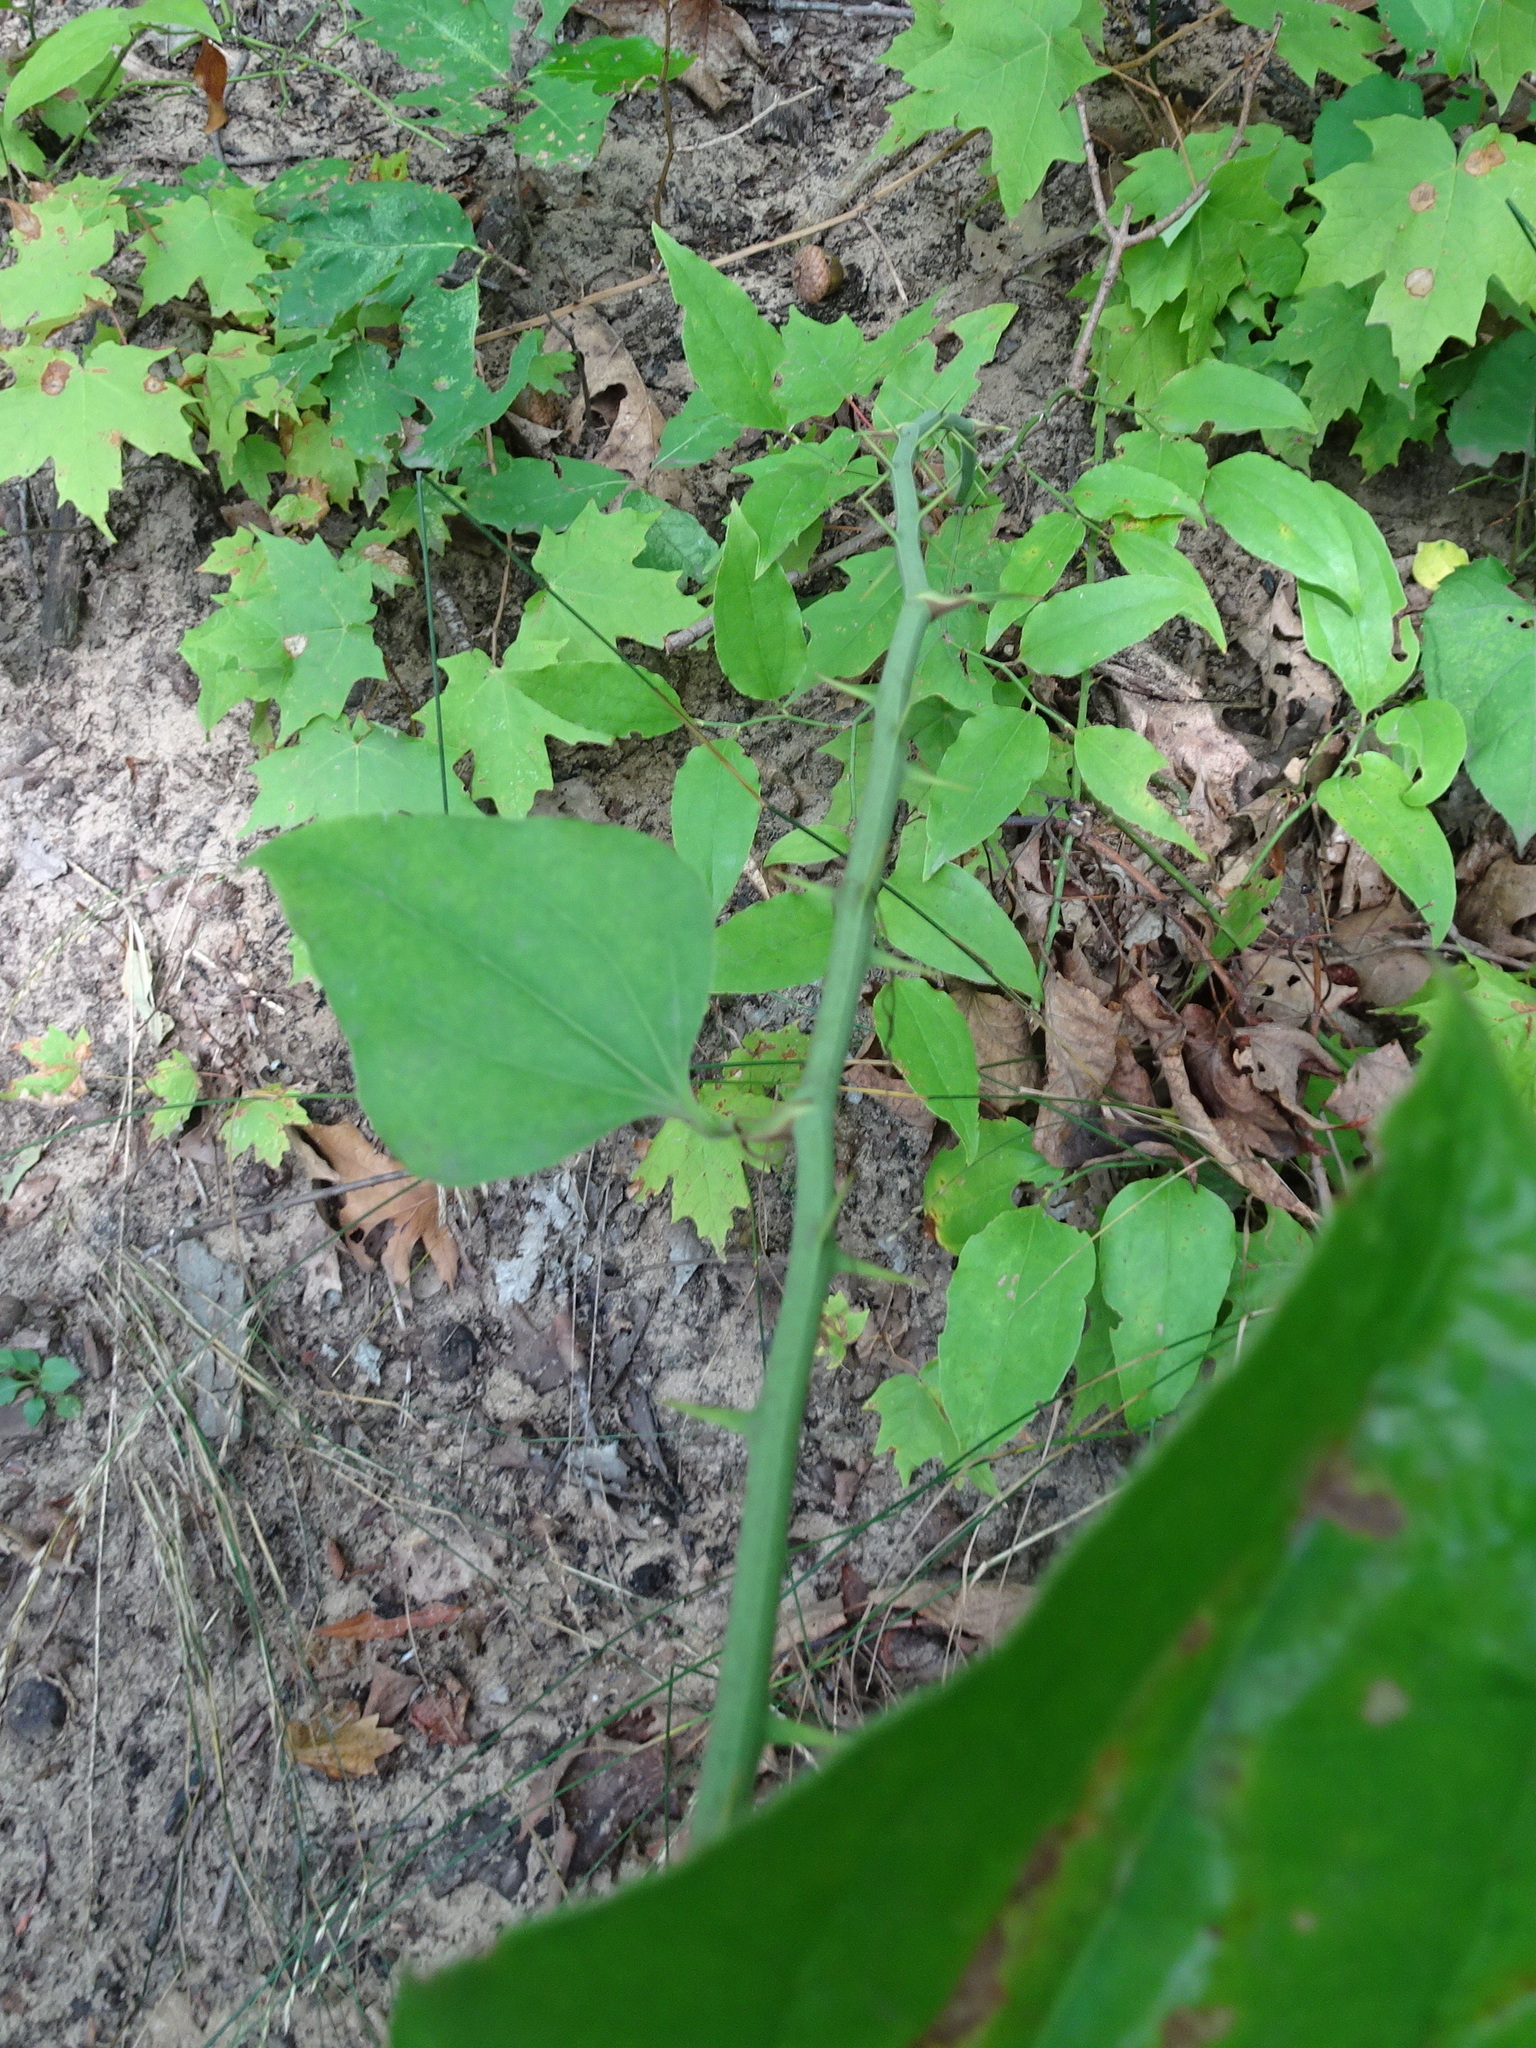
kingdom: Plantae
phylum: Tracheophyta
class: Liliopsida
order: Liliales
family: Smilacaceae
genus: Smilax
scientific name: Smilax rotundifolia
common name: Bullbriar
